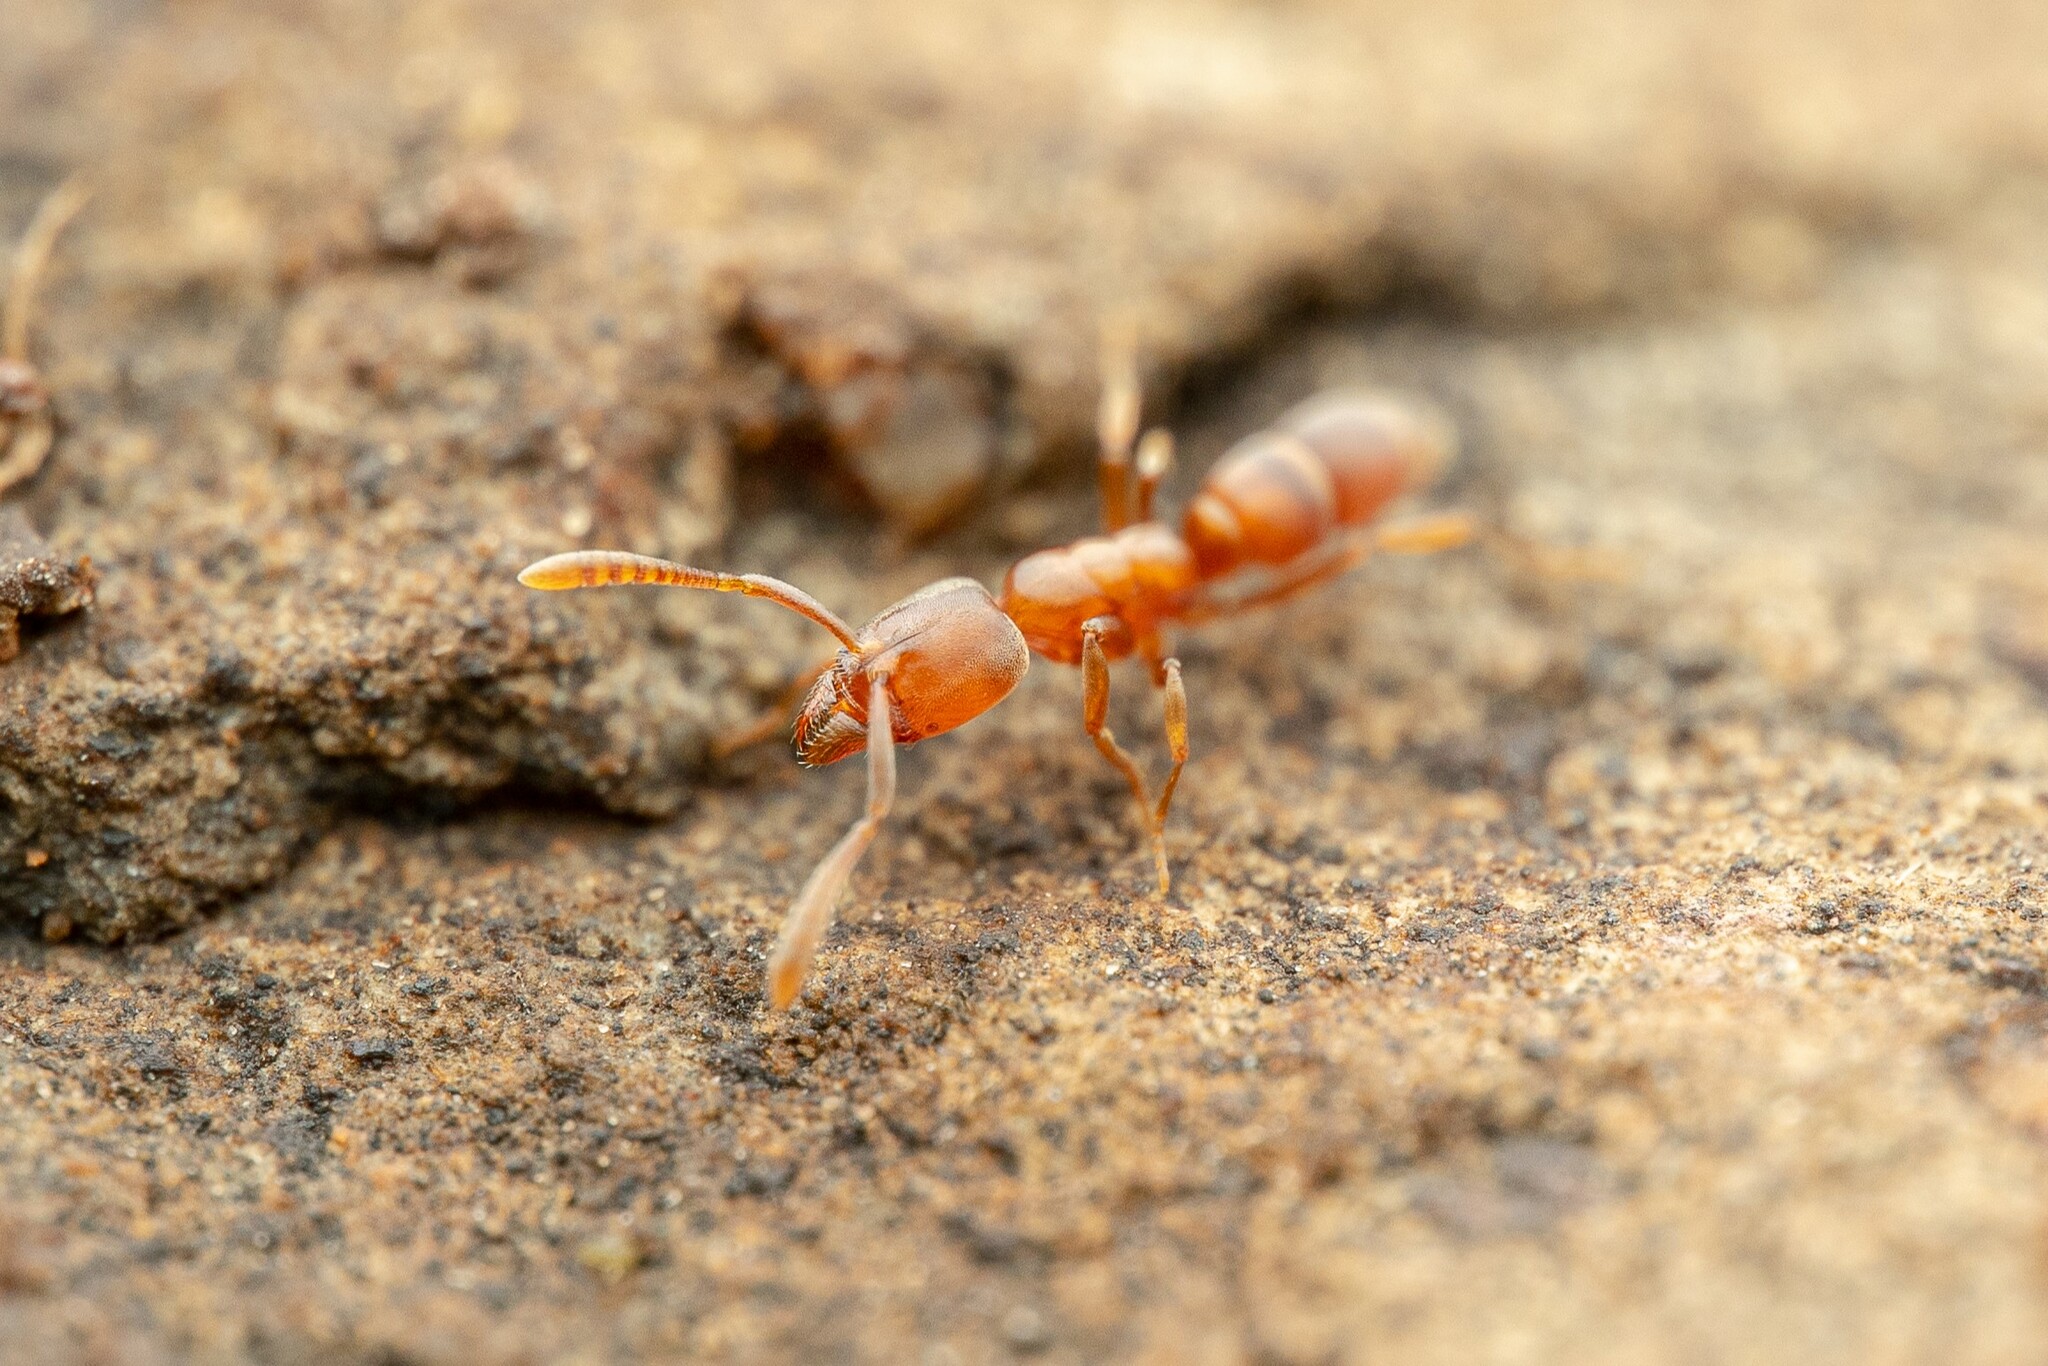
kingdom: Animalia
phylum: Arthropoda
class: Insecta
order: Hymenoptera
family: Formicidae
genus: Hypoponera
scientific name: Hypoponera opacior
